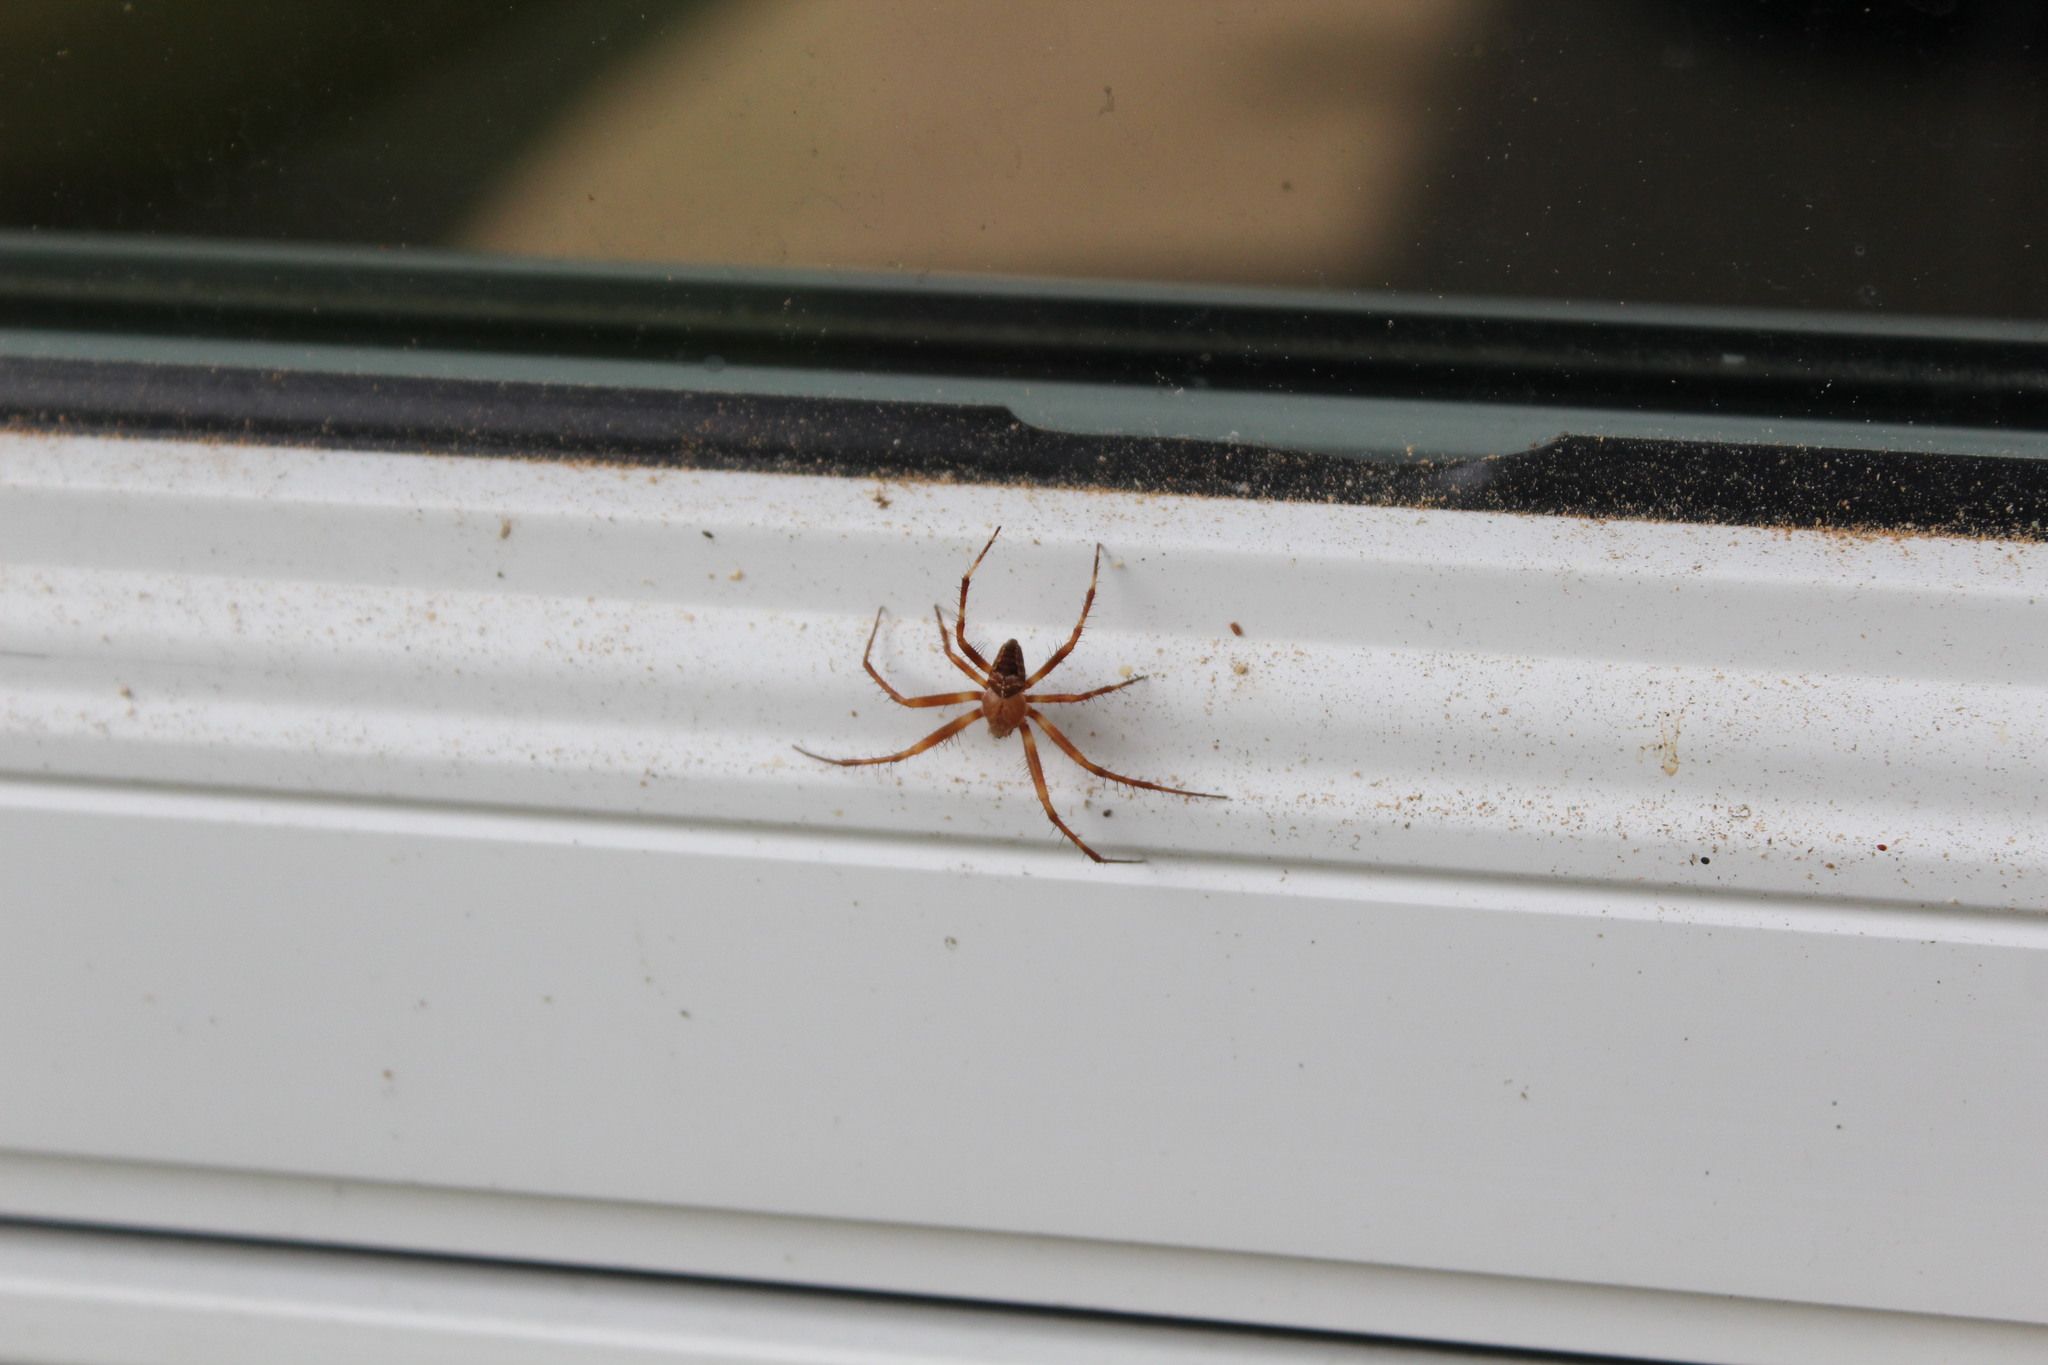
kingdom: Animalia
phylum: Arthropoda
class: Arachnida
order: Araneae
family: Araneidae
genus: Araneus
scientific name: Araneus diadematus
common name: Cross orbweaver
